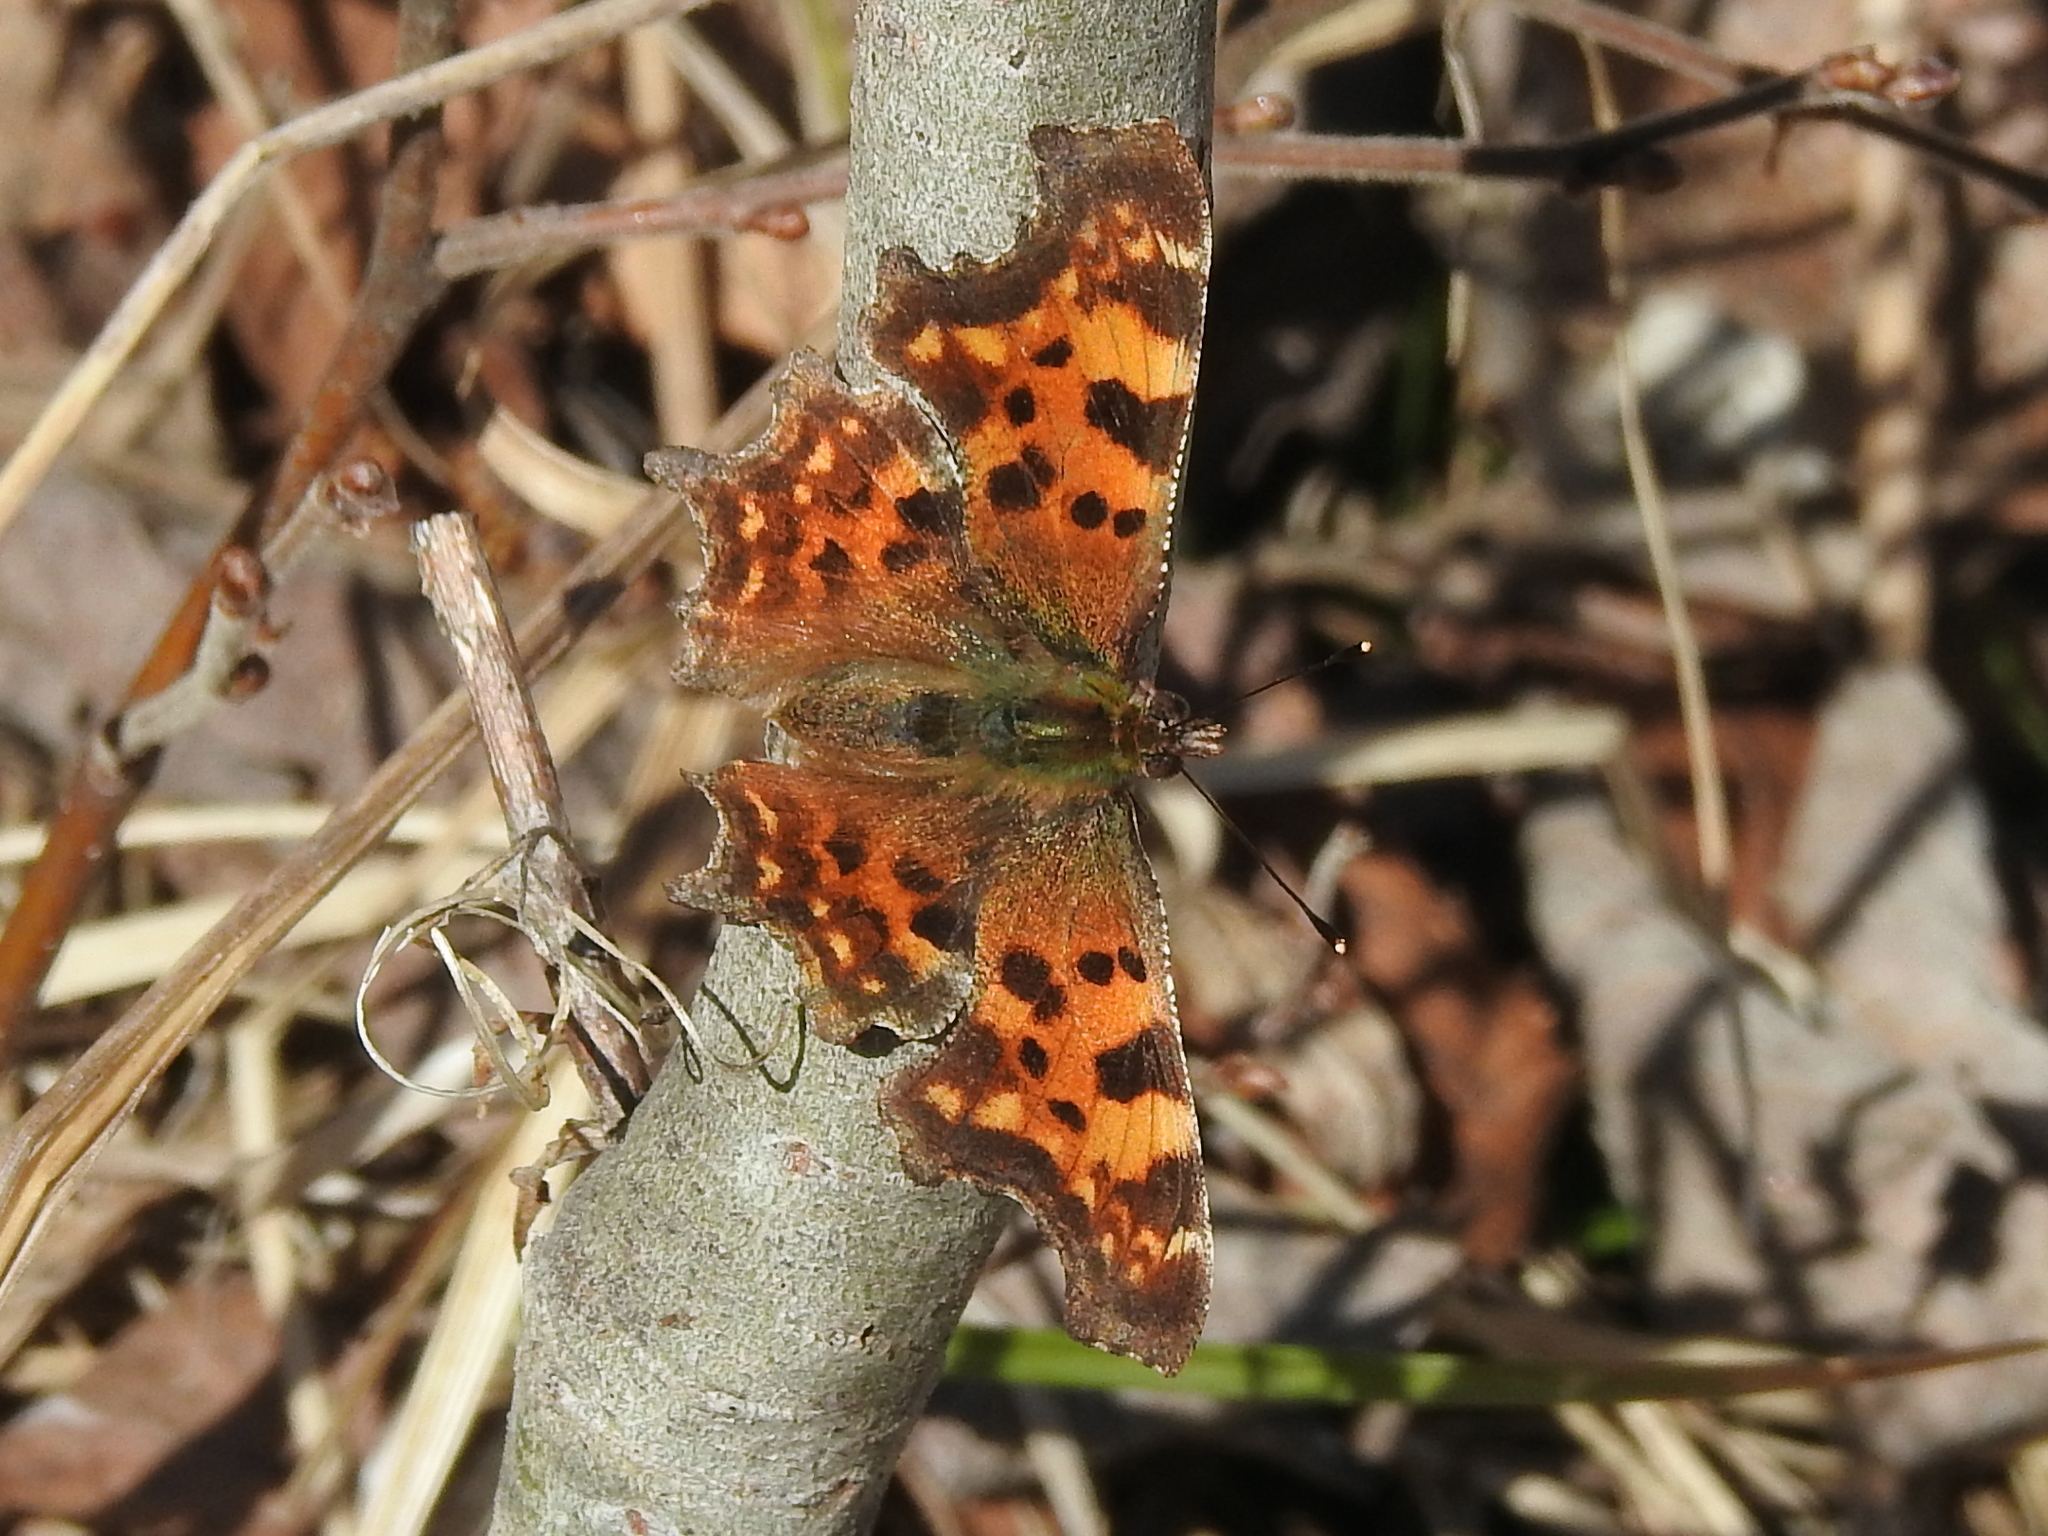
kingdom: Animalia
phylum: Arthropoda
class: Insecta
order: Lepidoptera
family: Nymphalidae
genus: Polygonia
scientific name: Polygonia c-album
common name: Comma
